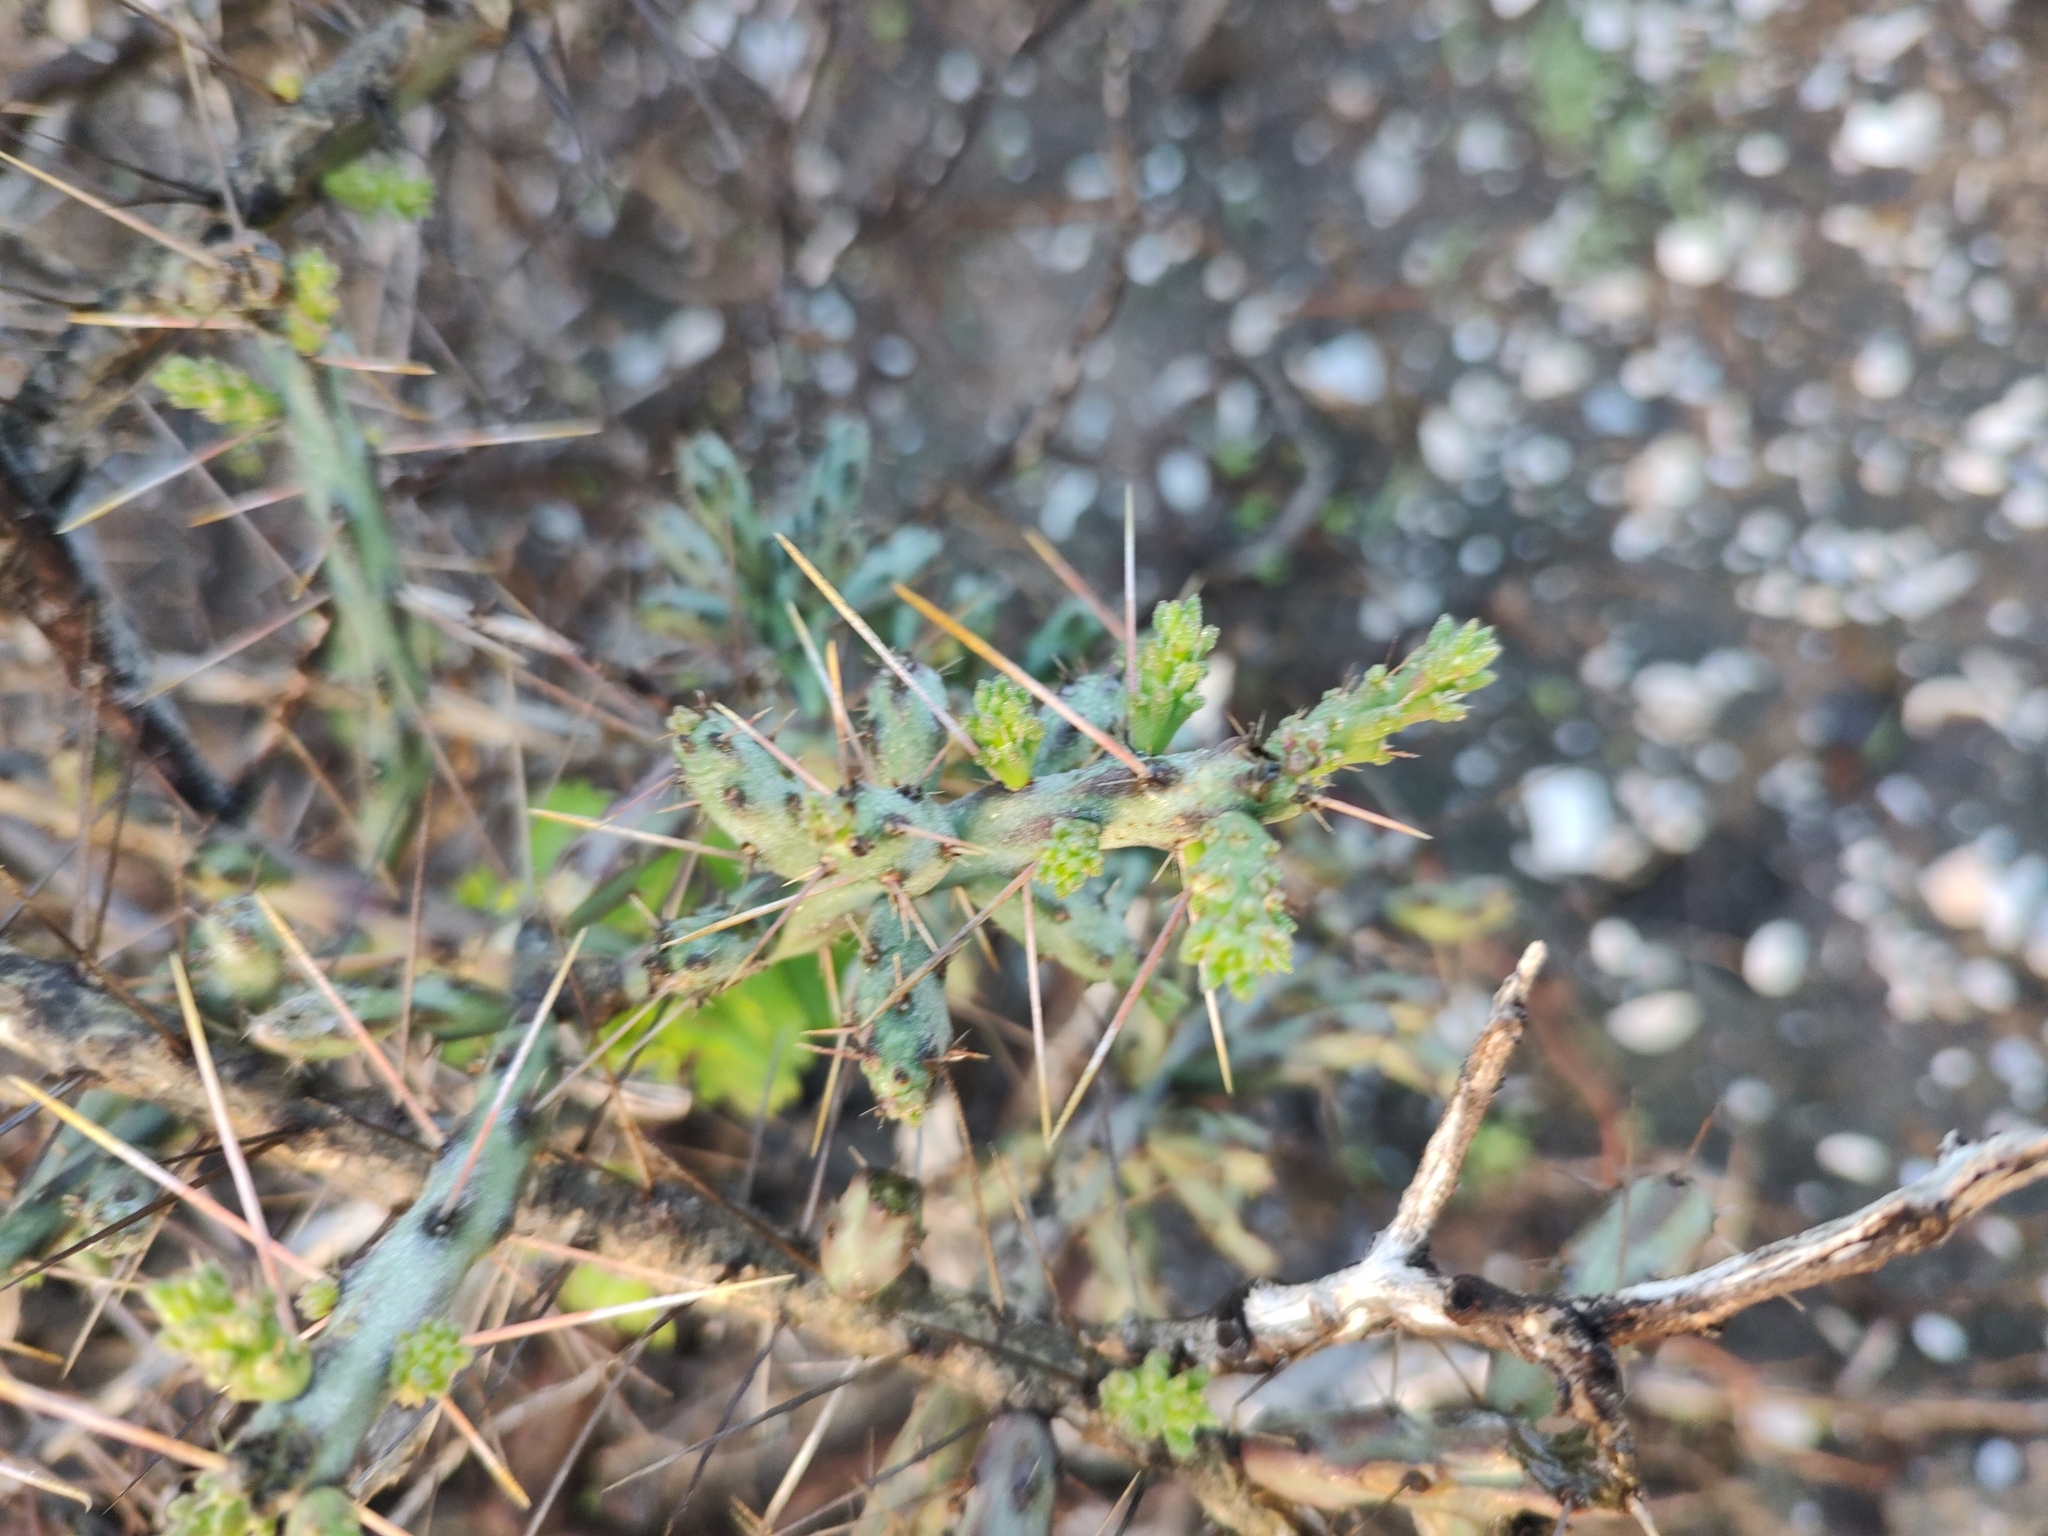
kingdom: Plantae
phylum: Tracheophyta
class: Magnoliopsida
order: Caryophyllales
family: Cactaceae
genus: Cylindropuntia
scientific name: Cylindropuntia lindsayi
